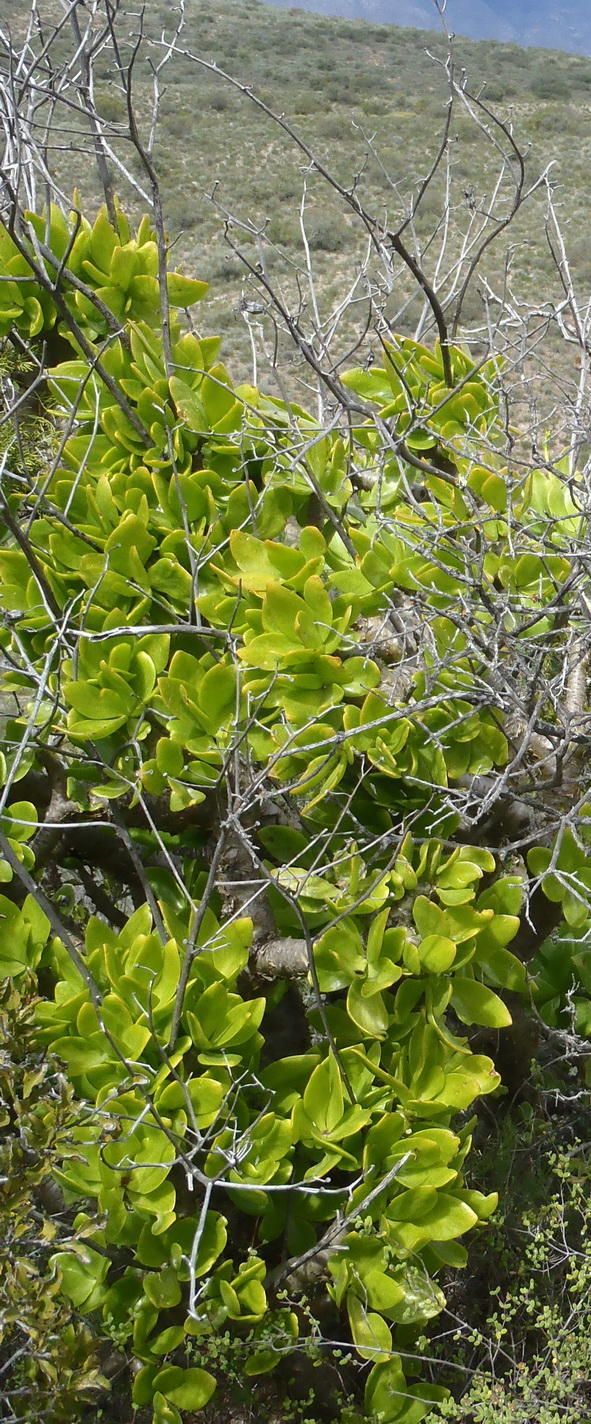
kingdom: Plantae
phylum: Tracheophyta
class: Magnoliopsida
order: Saxifragales
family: Crassulaceae
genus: Tylecodon
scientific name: Tylecodon paniculatus
